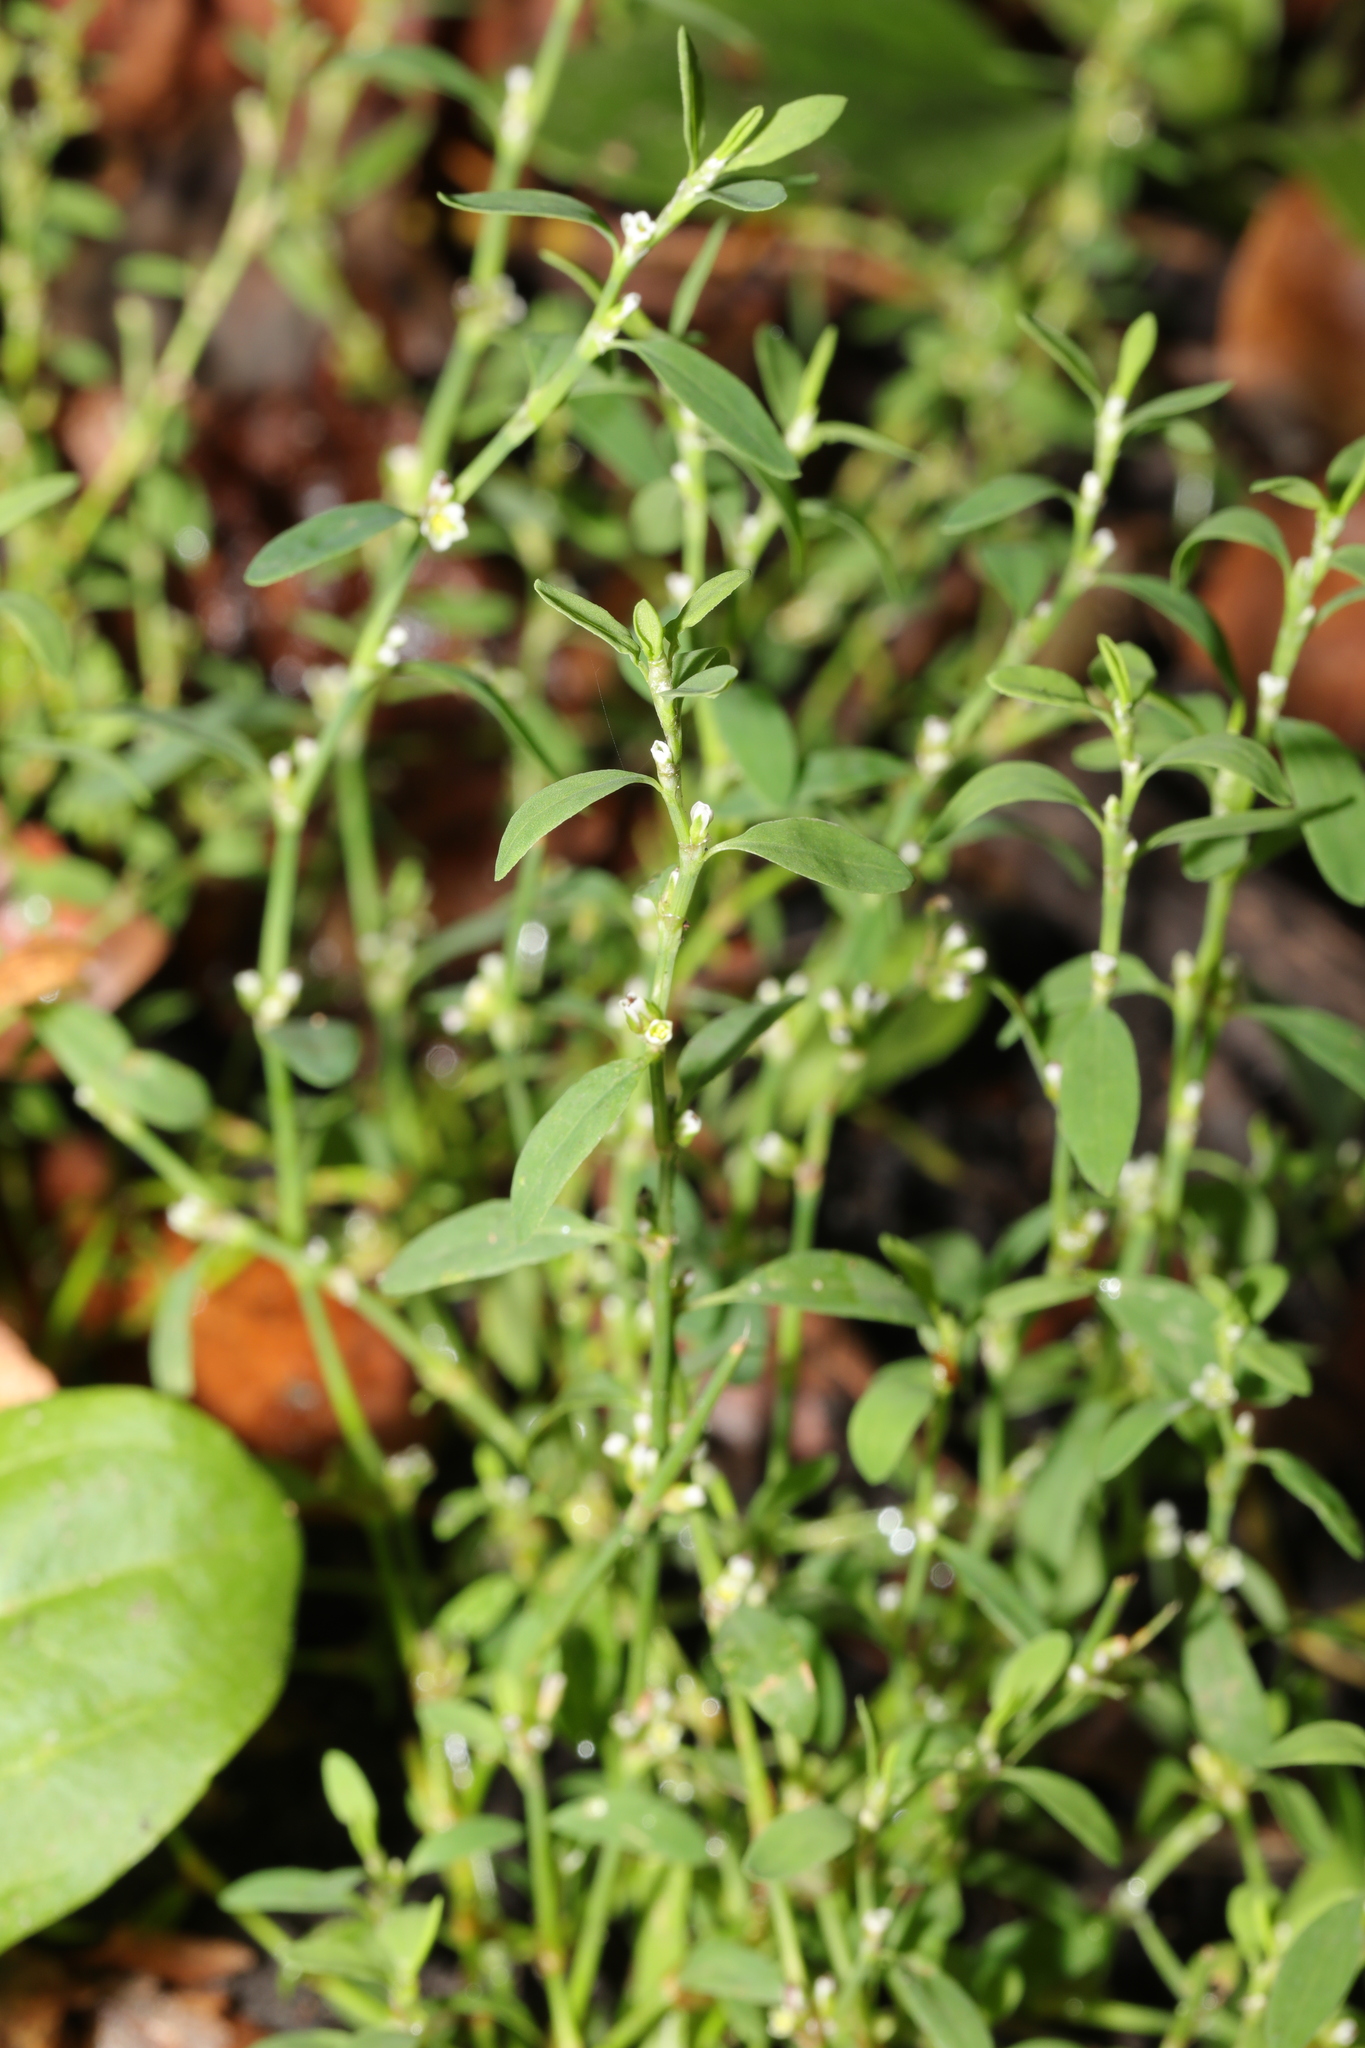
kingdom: Plantae
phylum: Tracheophyta
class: Magnoliopsida
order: Caryophyllales
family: Polygonaceae
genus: Polygonum
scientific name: Polygonum aviculare
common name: Prostrate knotweed
